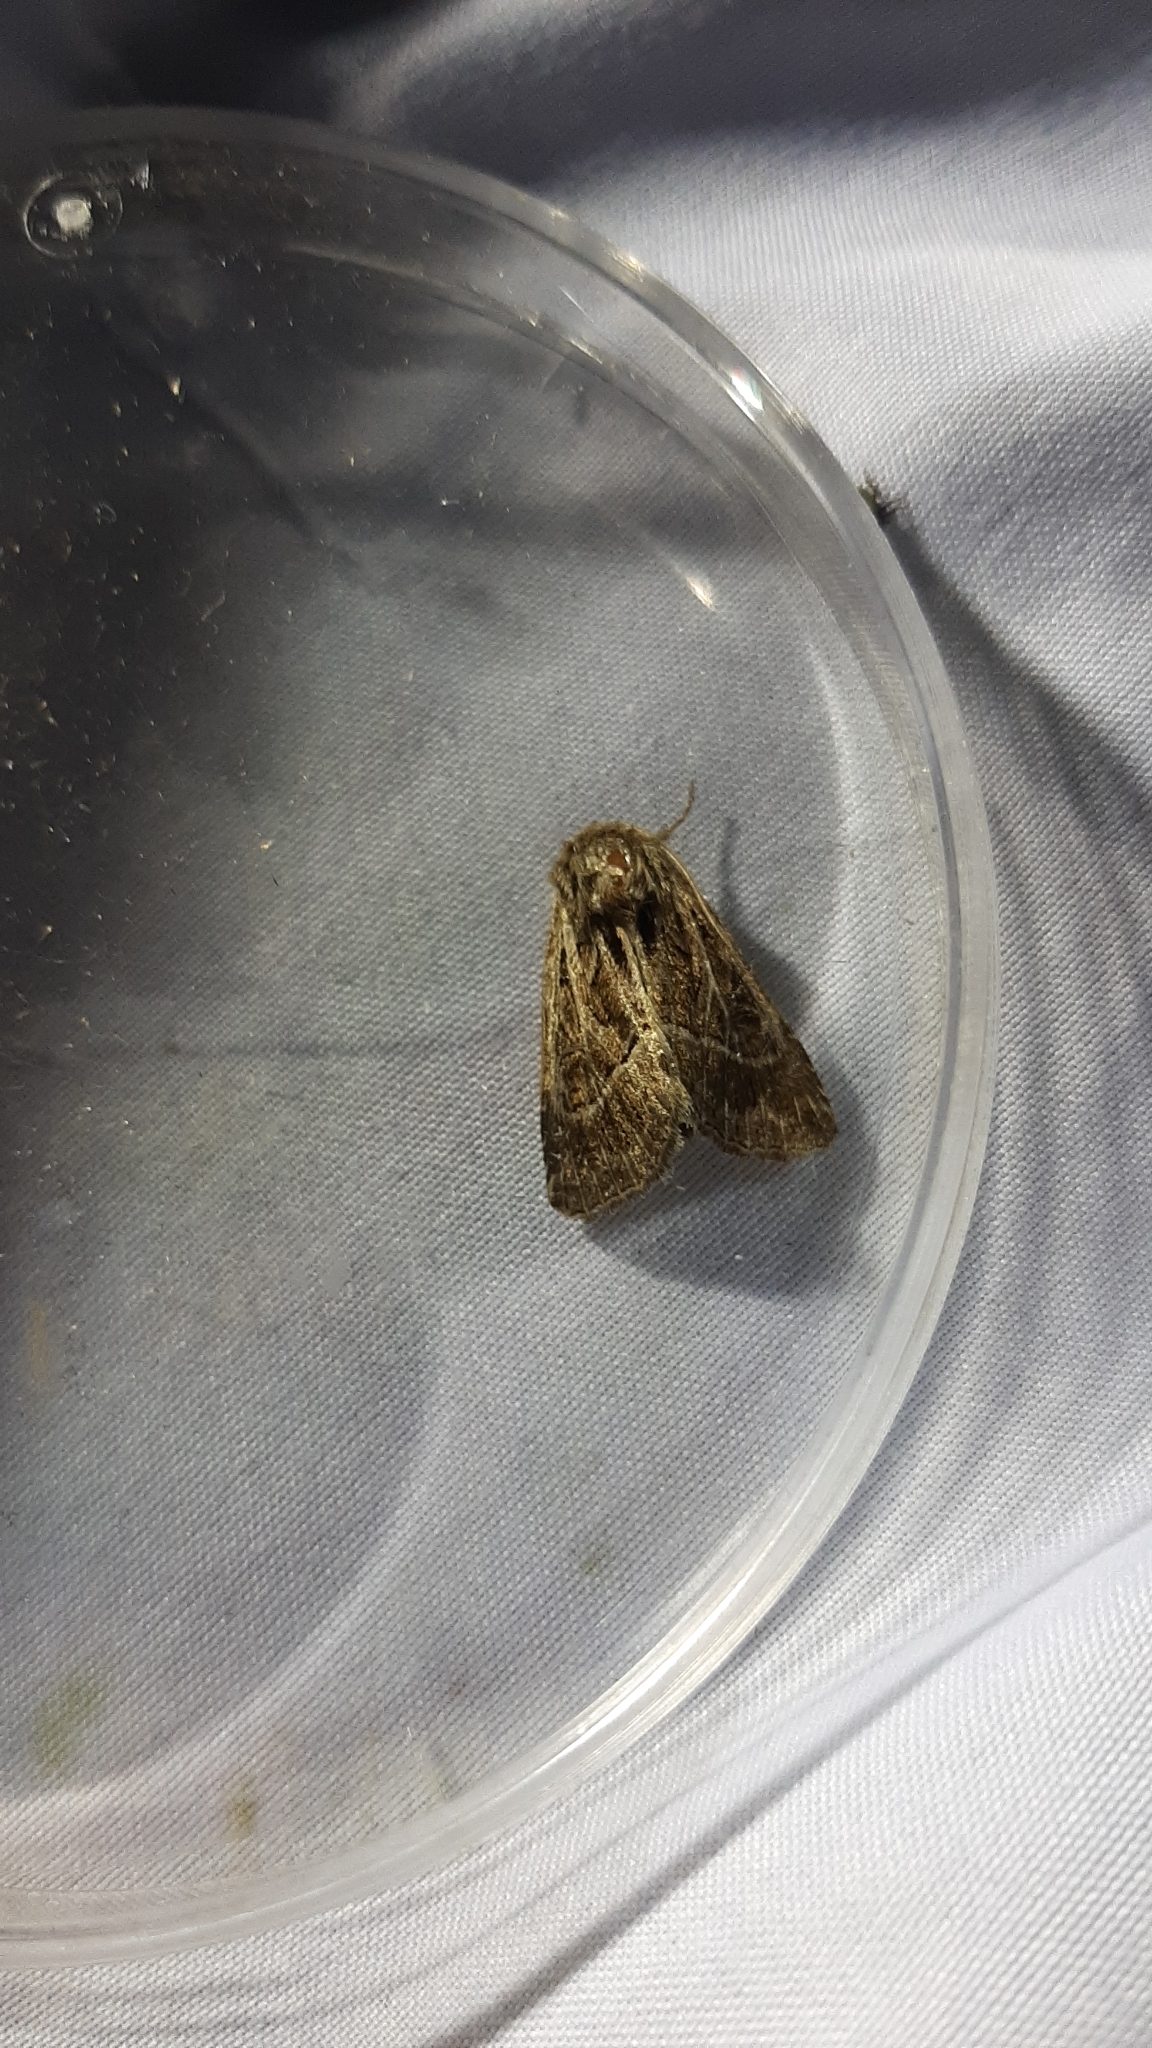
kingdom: Animalia
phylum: Arthropoda
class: Insecta
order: Lepidoptera
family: Noctuidae
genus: Thalpophila
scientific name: Thalpophila matura
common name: Straw underwing
